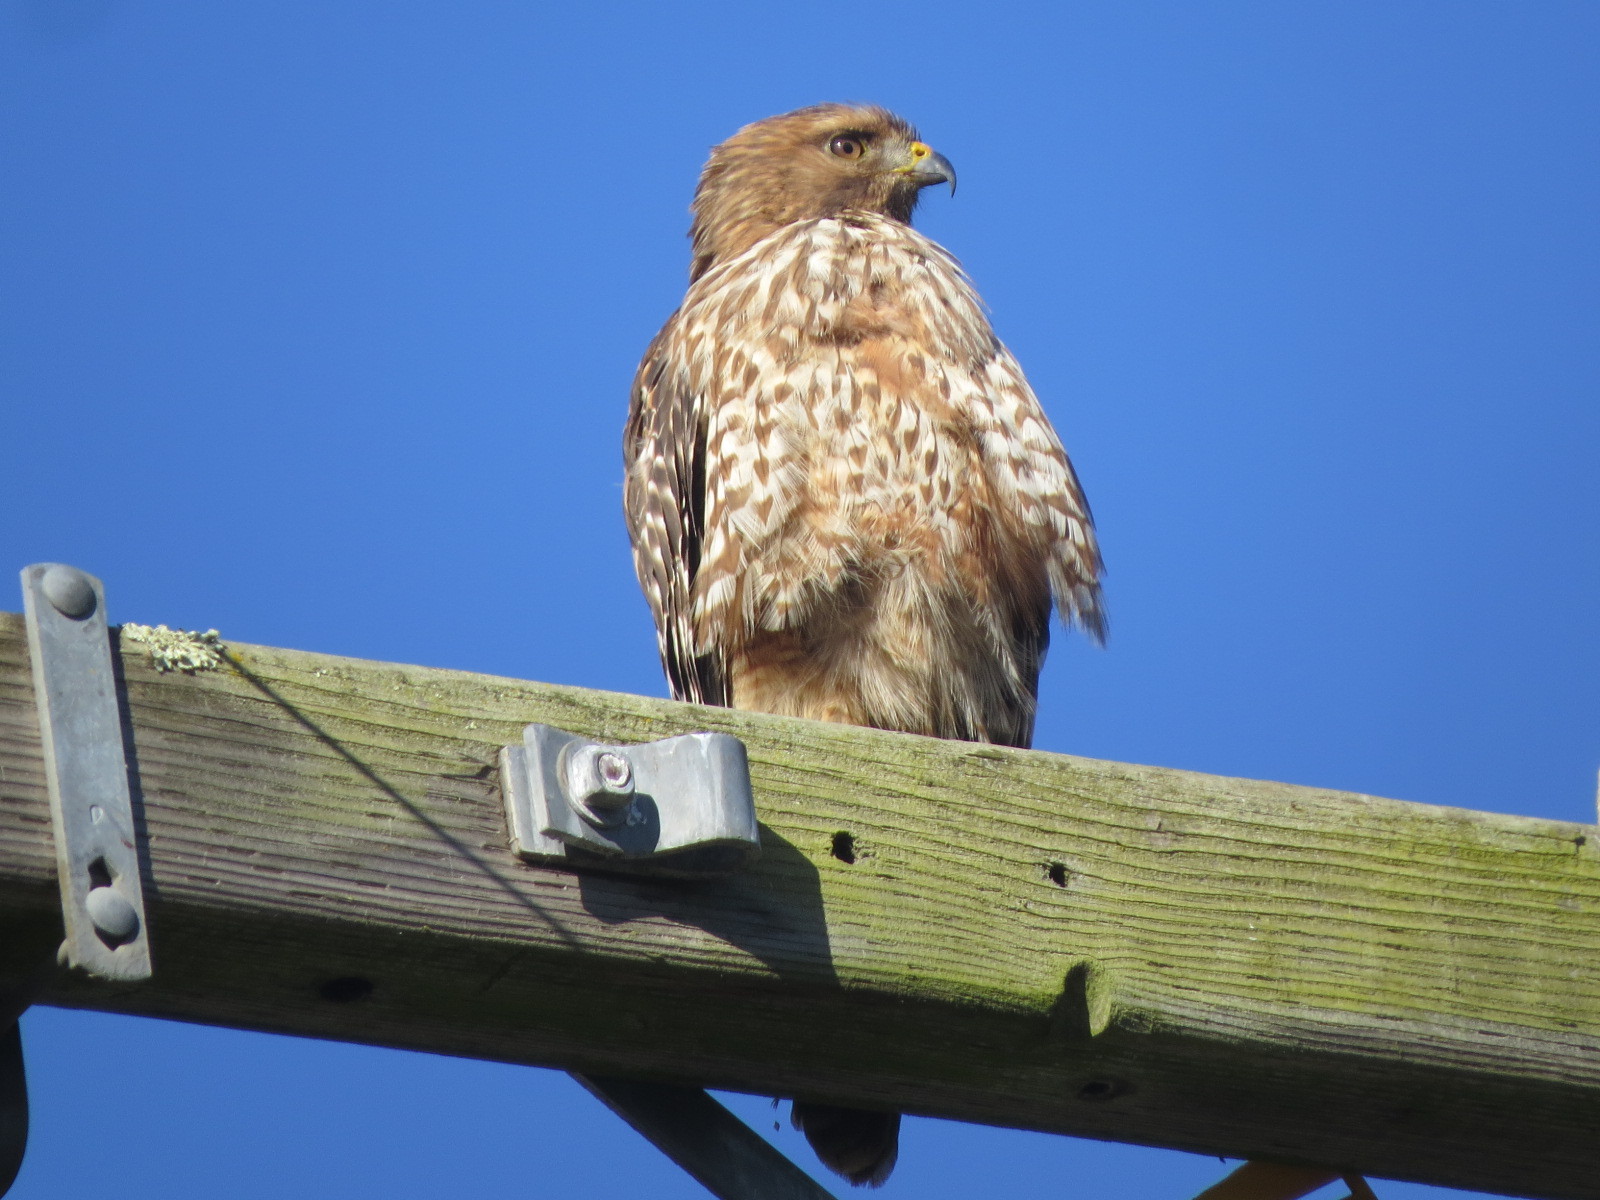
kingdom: Animalia
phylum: Chordata
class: Aves
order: Accipitriformes
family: Accipitridae
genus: Buteo
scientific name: Buteo lineatus
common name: Red-shouldered hawk
